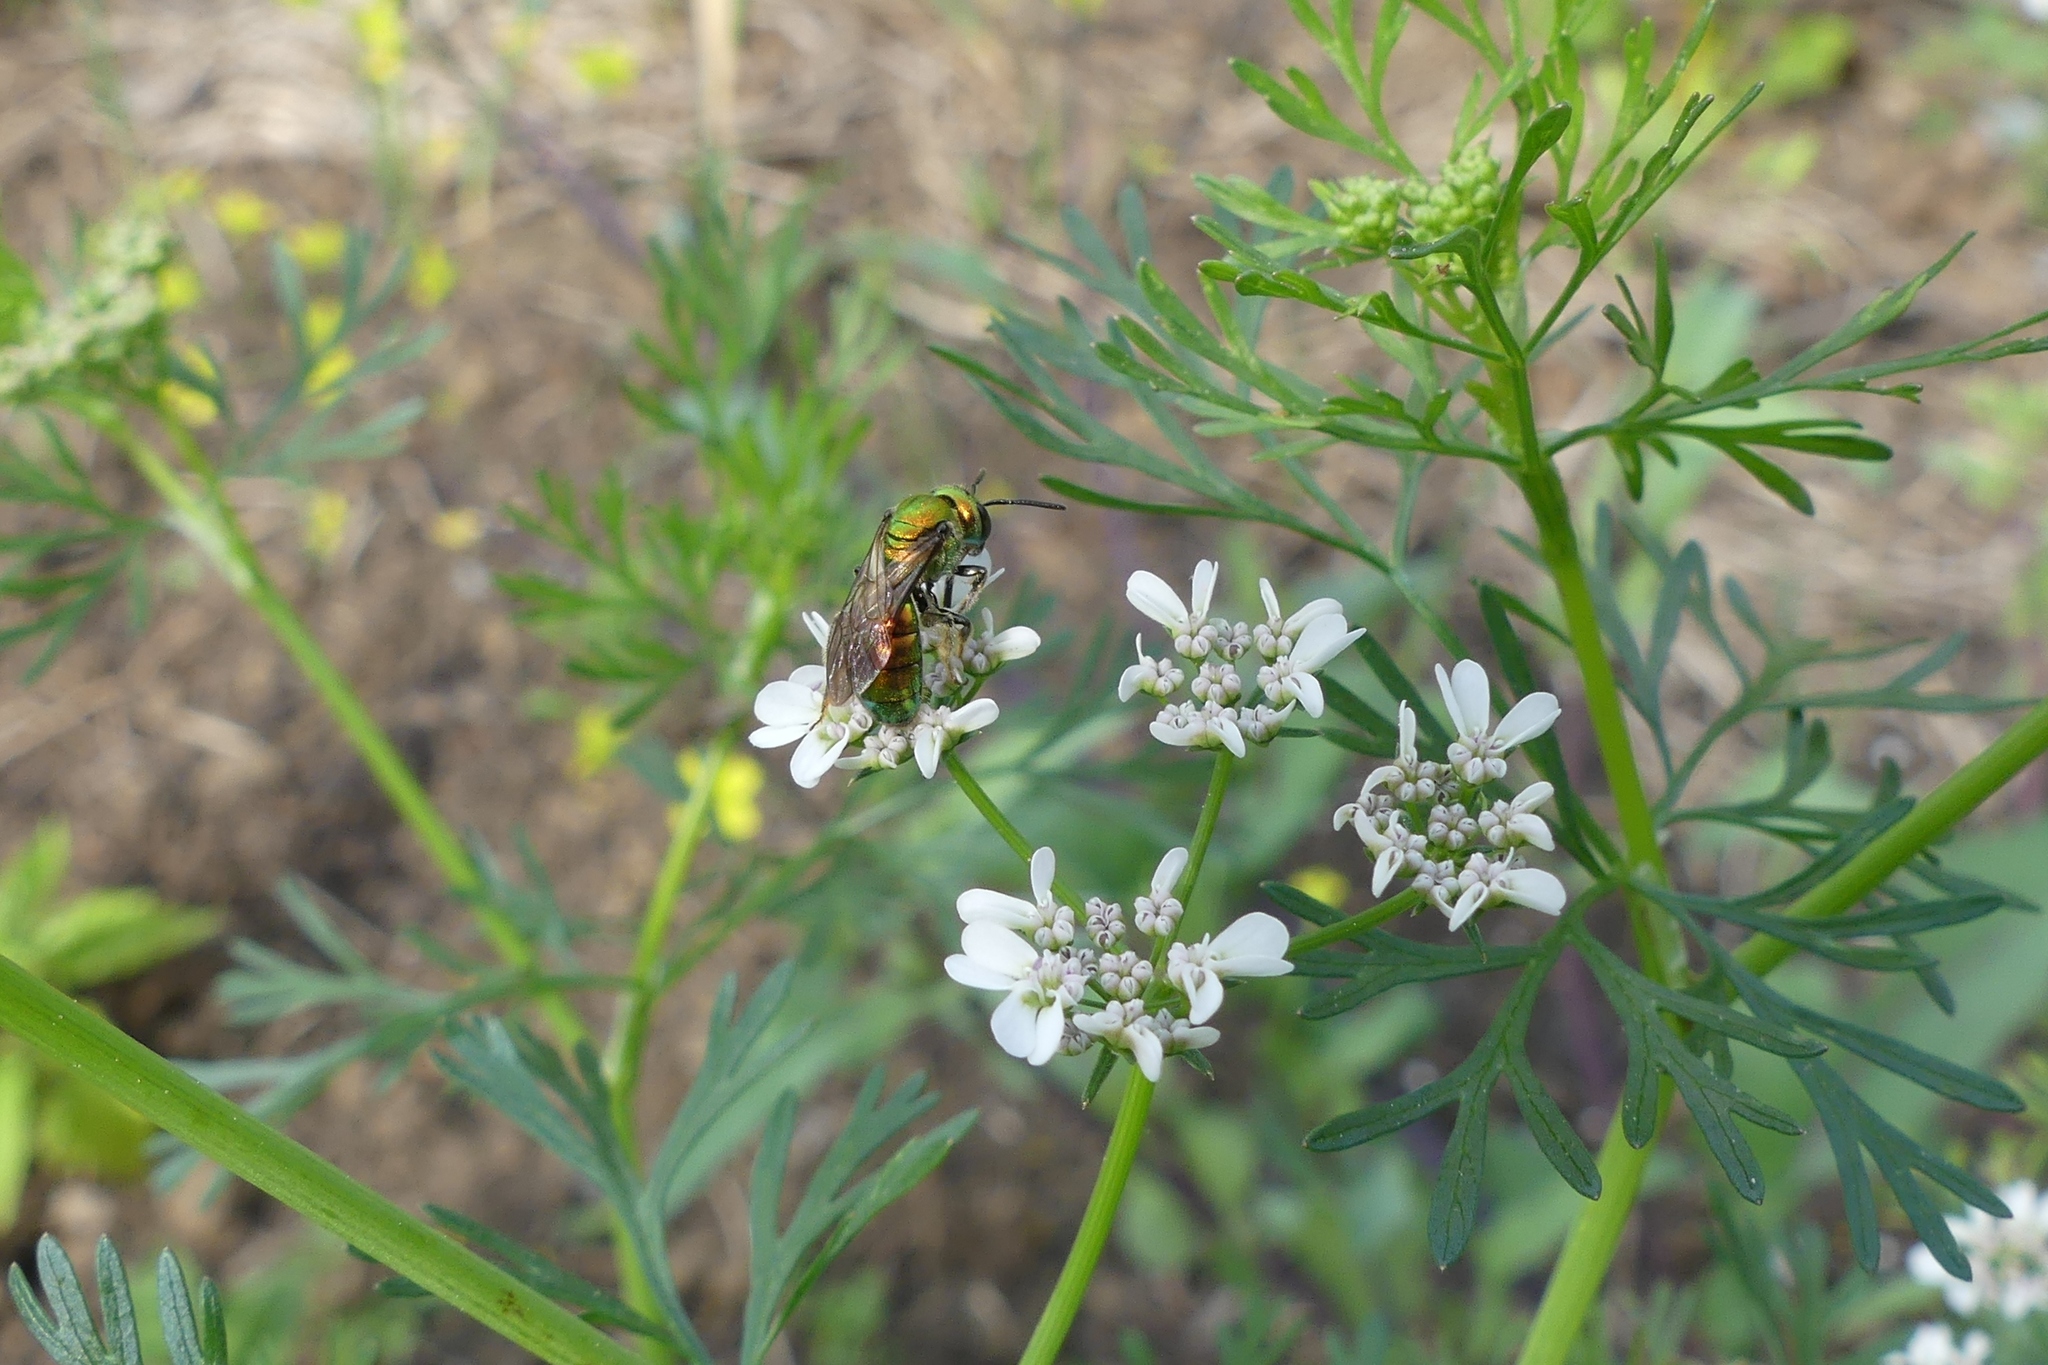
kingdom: Animalia
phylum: Arthropoda
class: Insecta
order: Hymenoptera
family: Halictidae
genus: Augochlora
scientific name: Augochlora pura
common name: Pure green sweat bee
